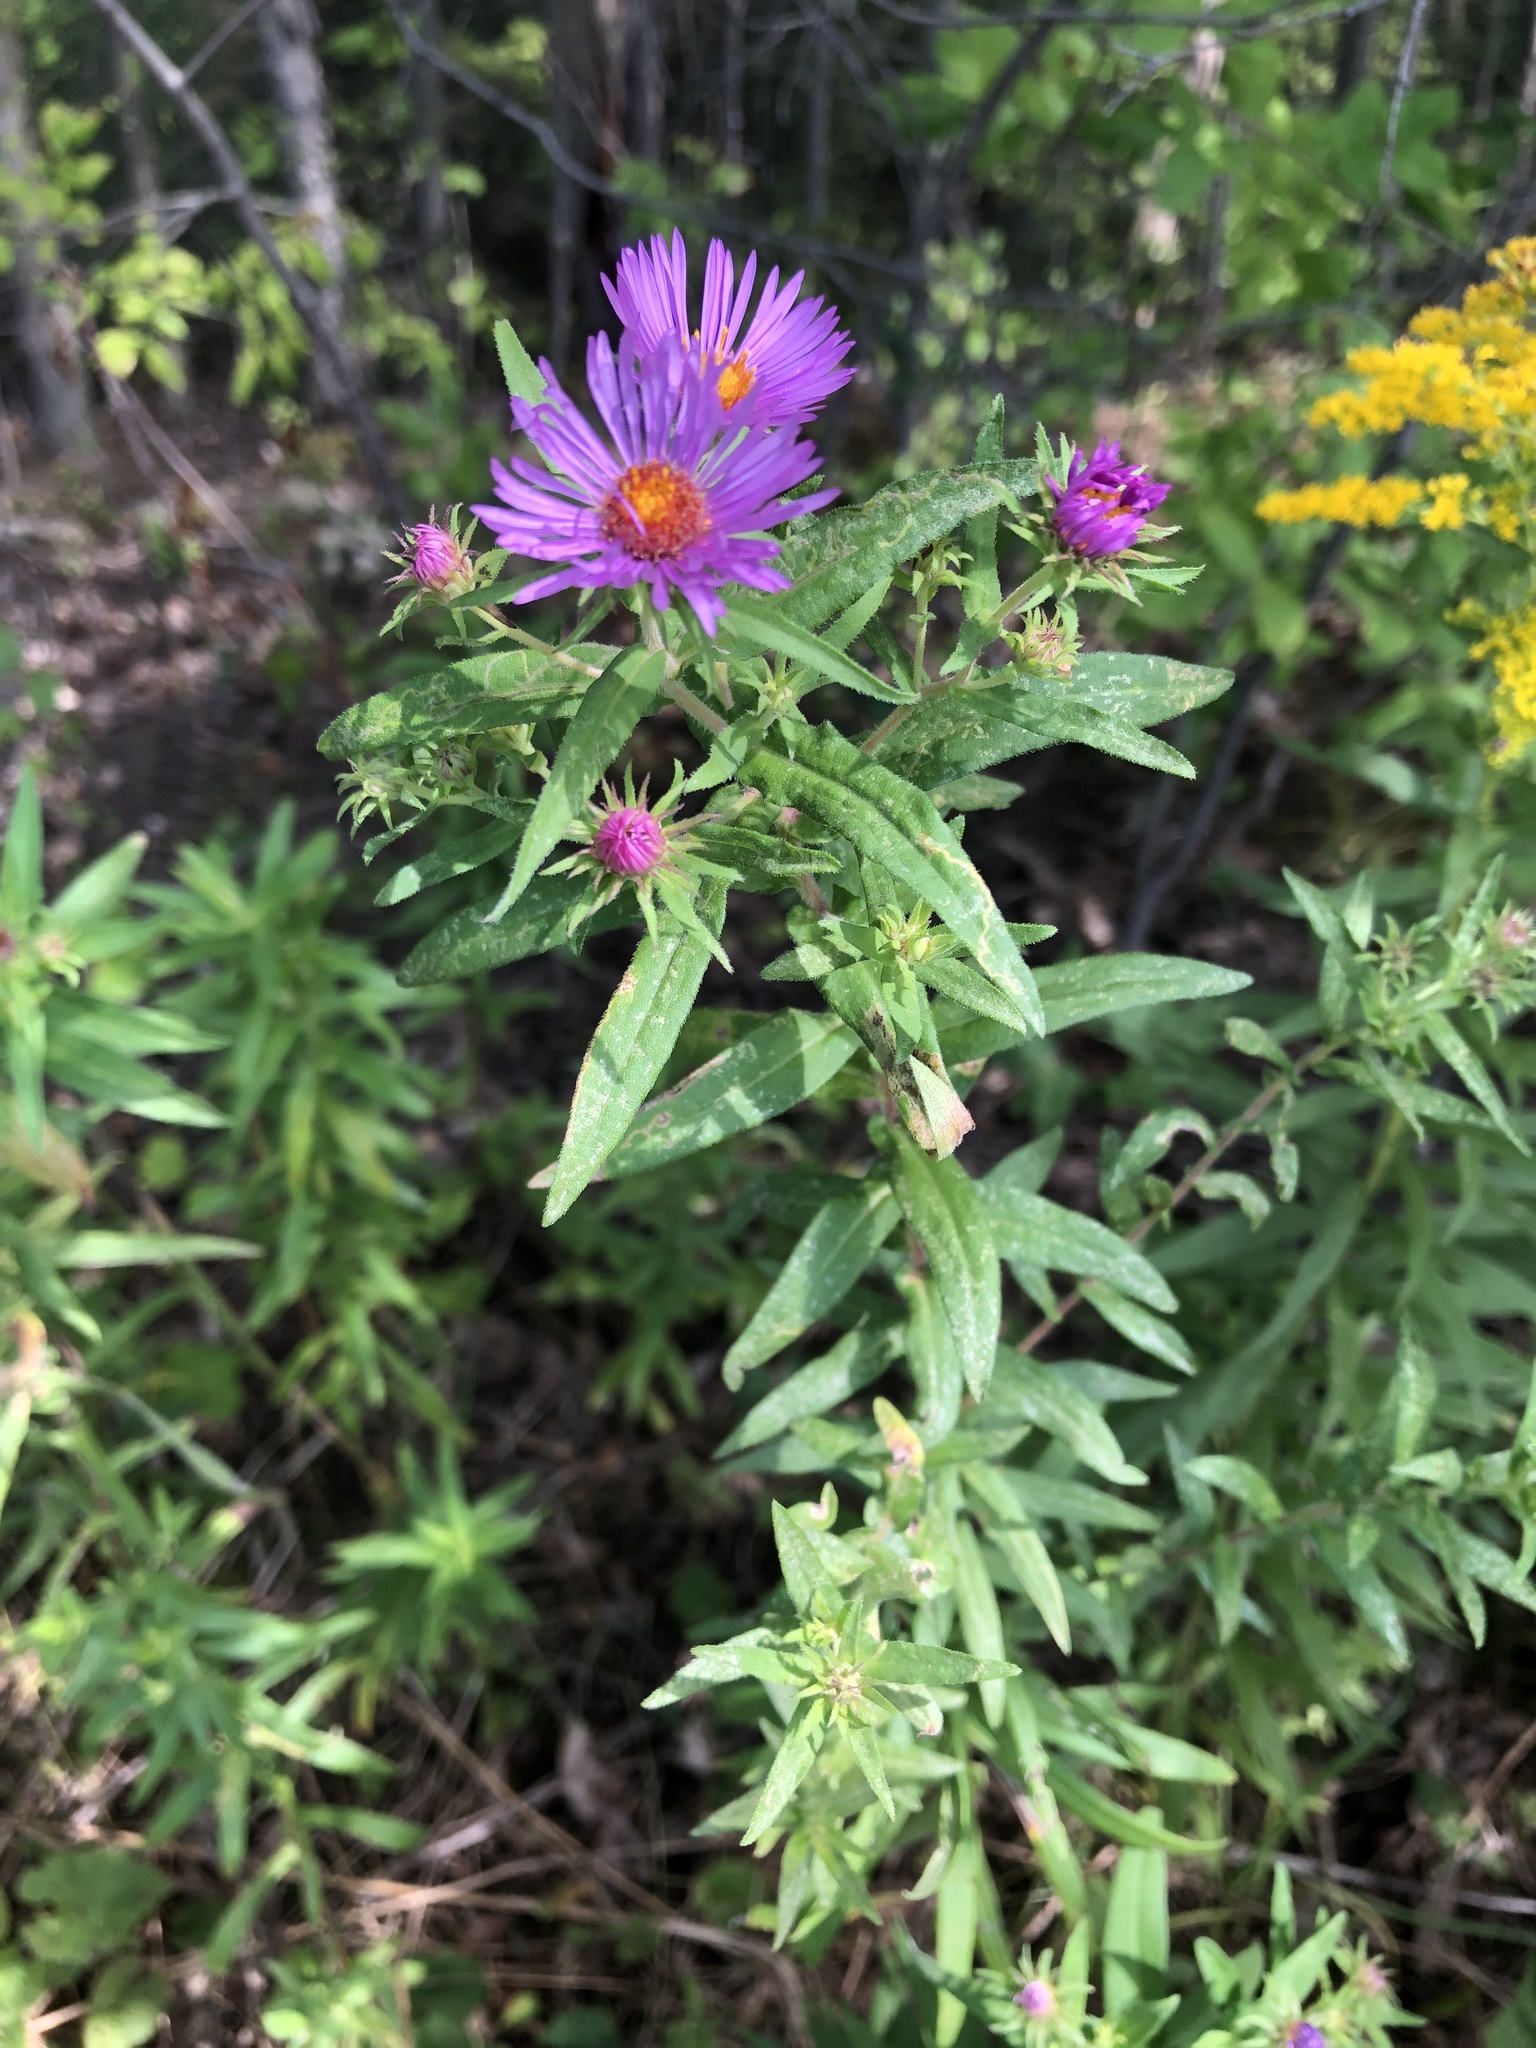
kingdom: Plantae
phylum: Tracheophyta
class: Magnoliopsida
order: Asterales
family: Asteraceae
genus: Symphyotrichum
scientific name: Symphyotrichum novae-angliae
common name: Michaelmas daisy
